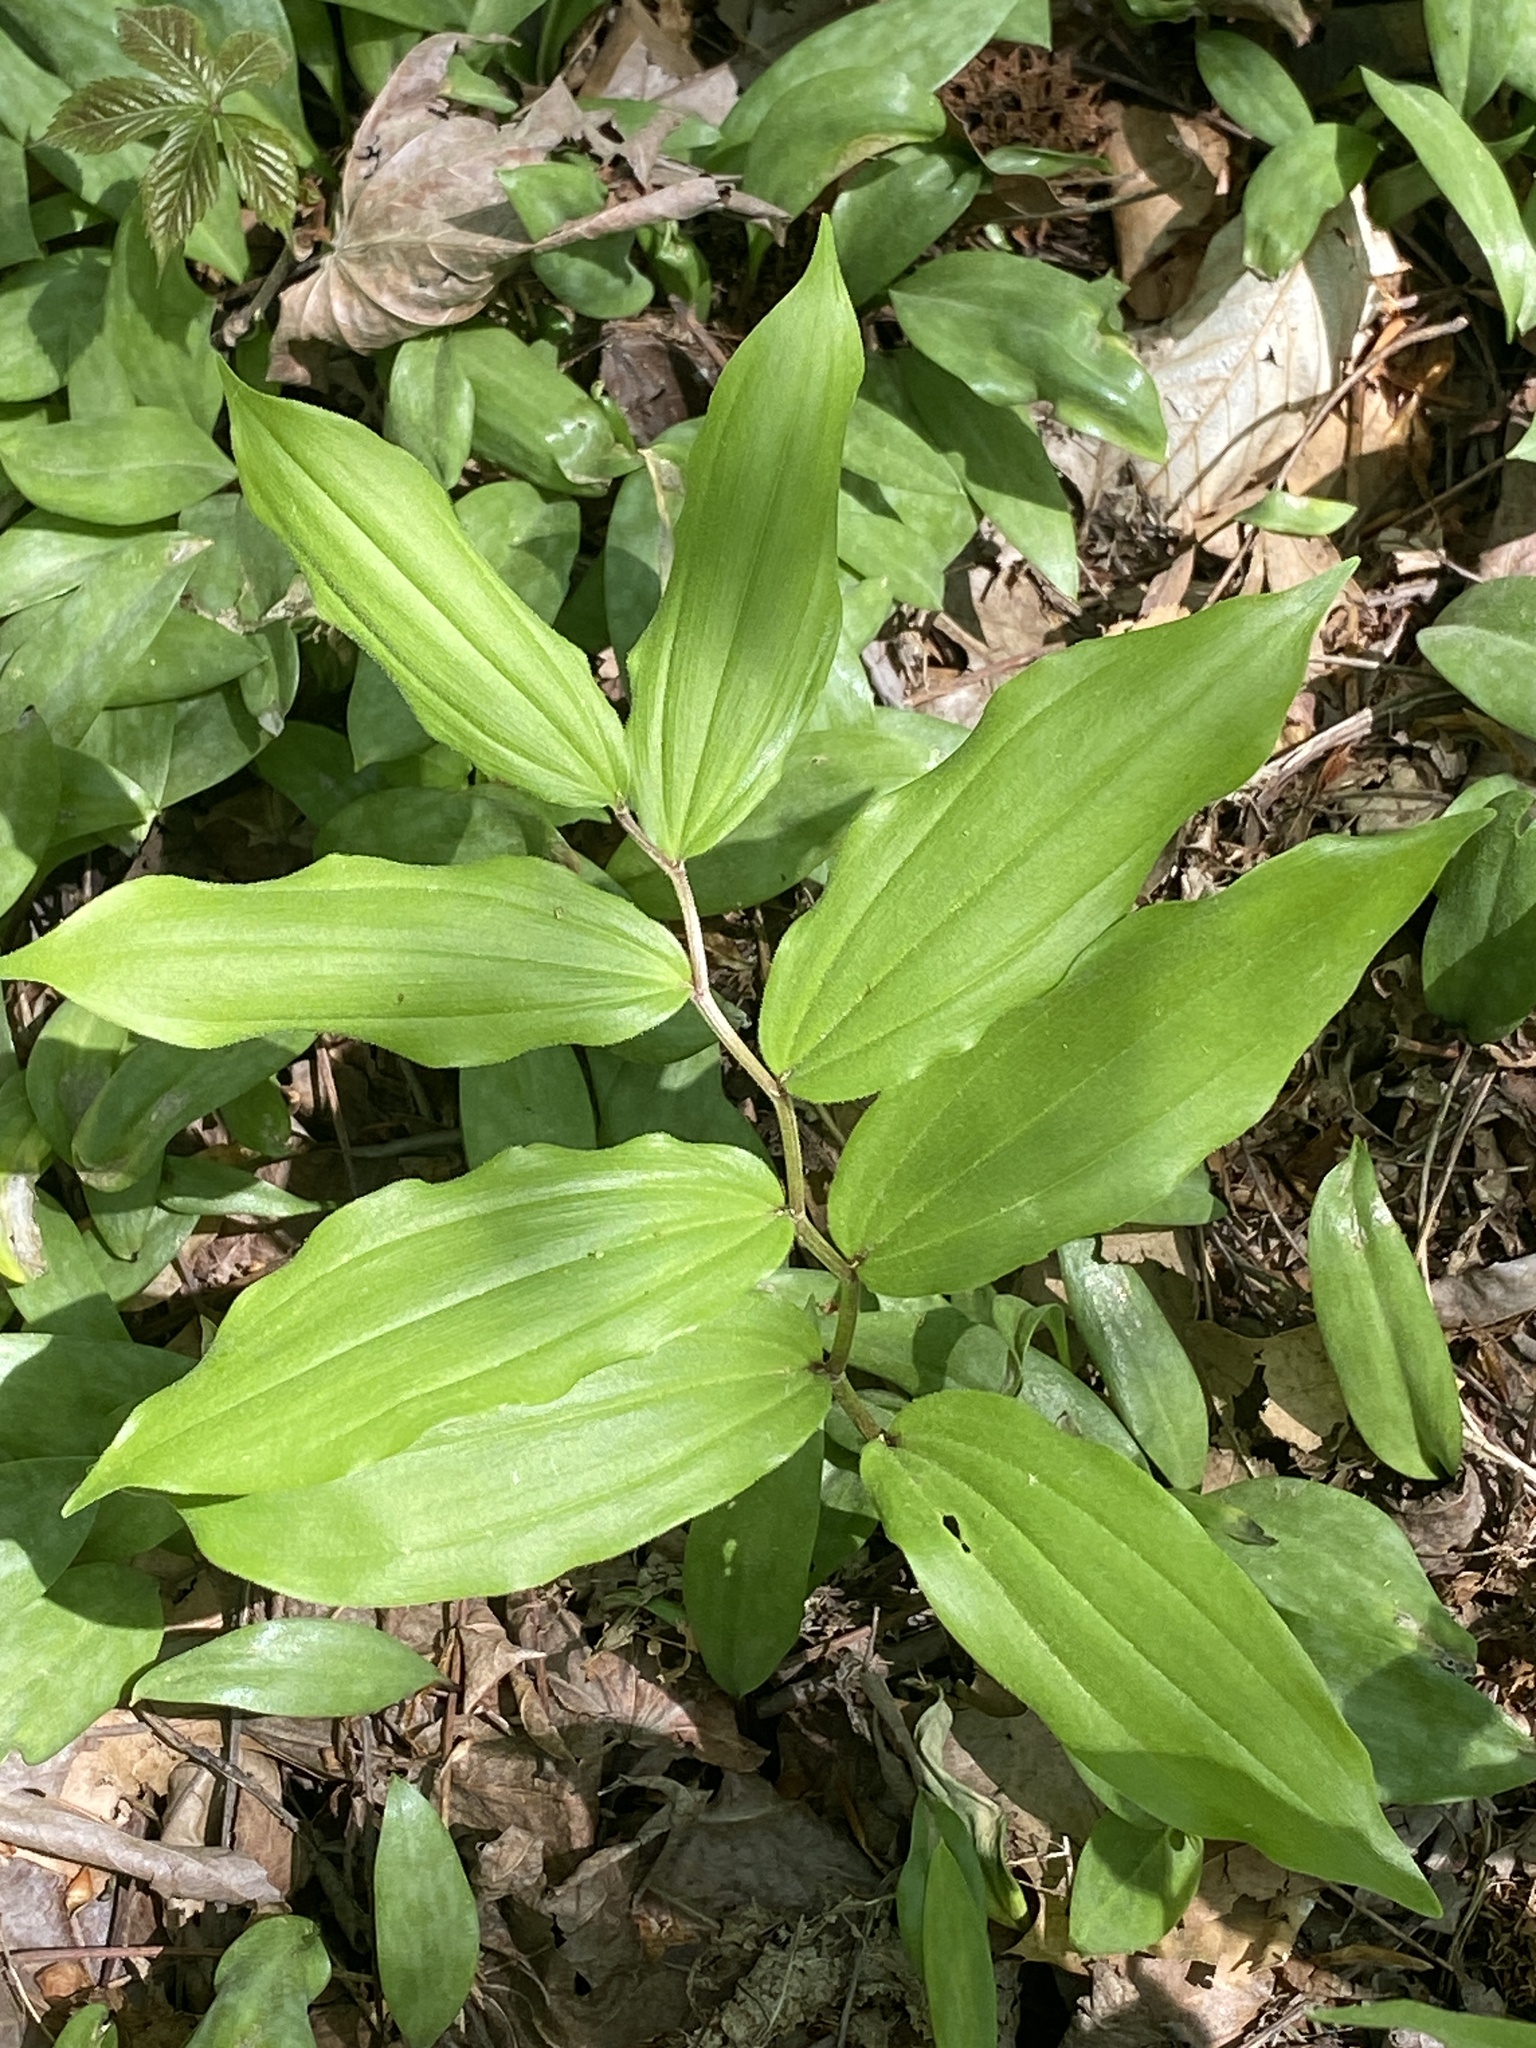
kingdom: Plantae
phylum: Tracheophyta
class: Liliopsida
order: Asparagales
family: Asparagaceae
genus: Maianthemum
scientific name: Maianthemum racemosum
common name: False spikenard
